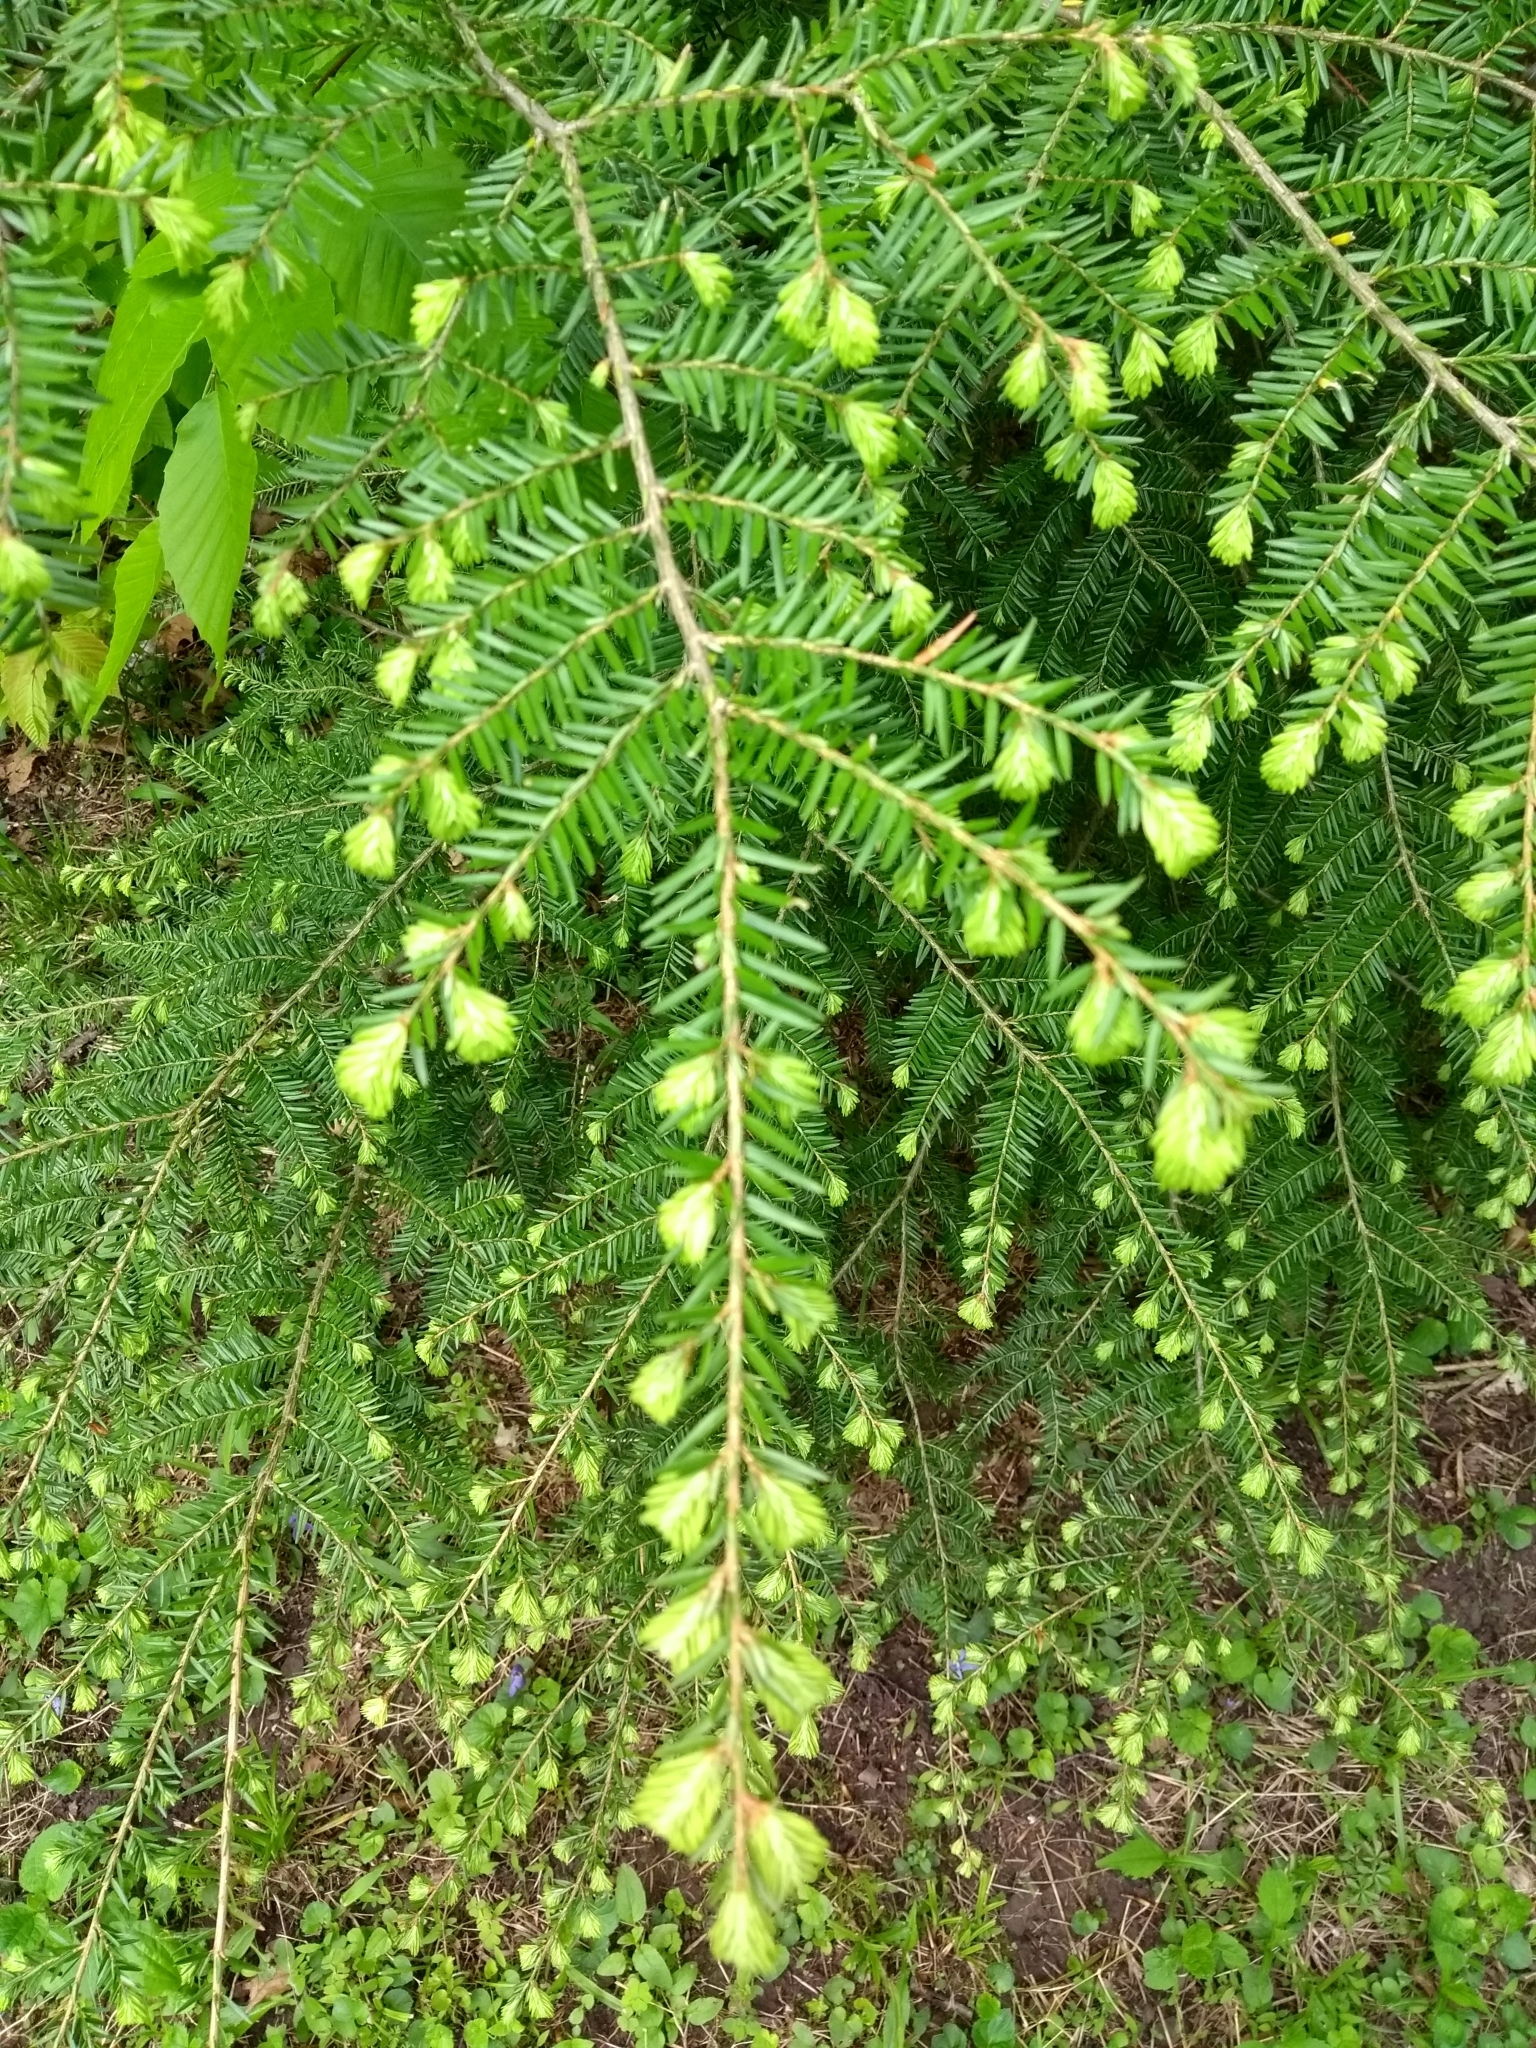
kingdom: Plantae
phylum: Tracheophyta
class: Pinopsida
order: Pinales
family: Pinaceae
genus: Tsuga
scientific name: Tsuga canadensis
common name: Eastern hemlock
